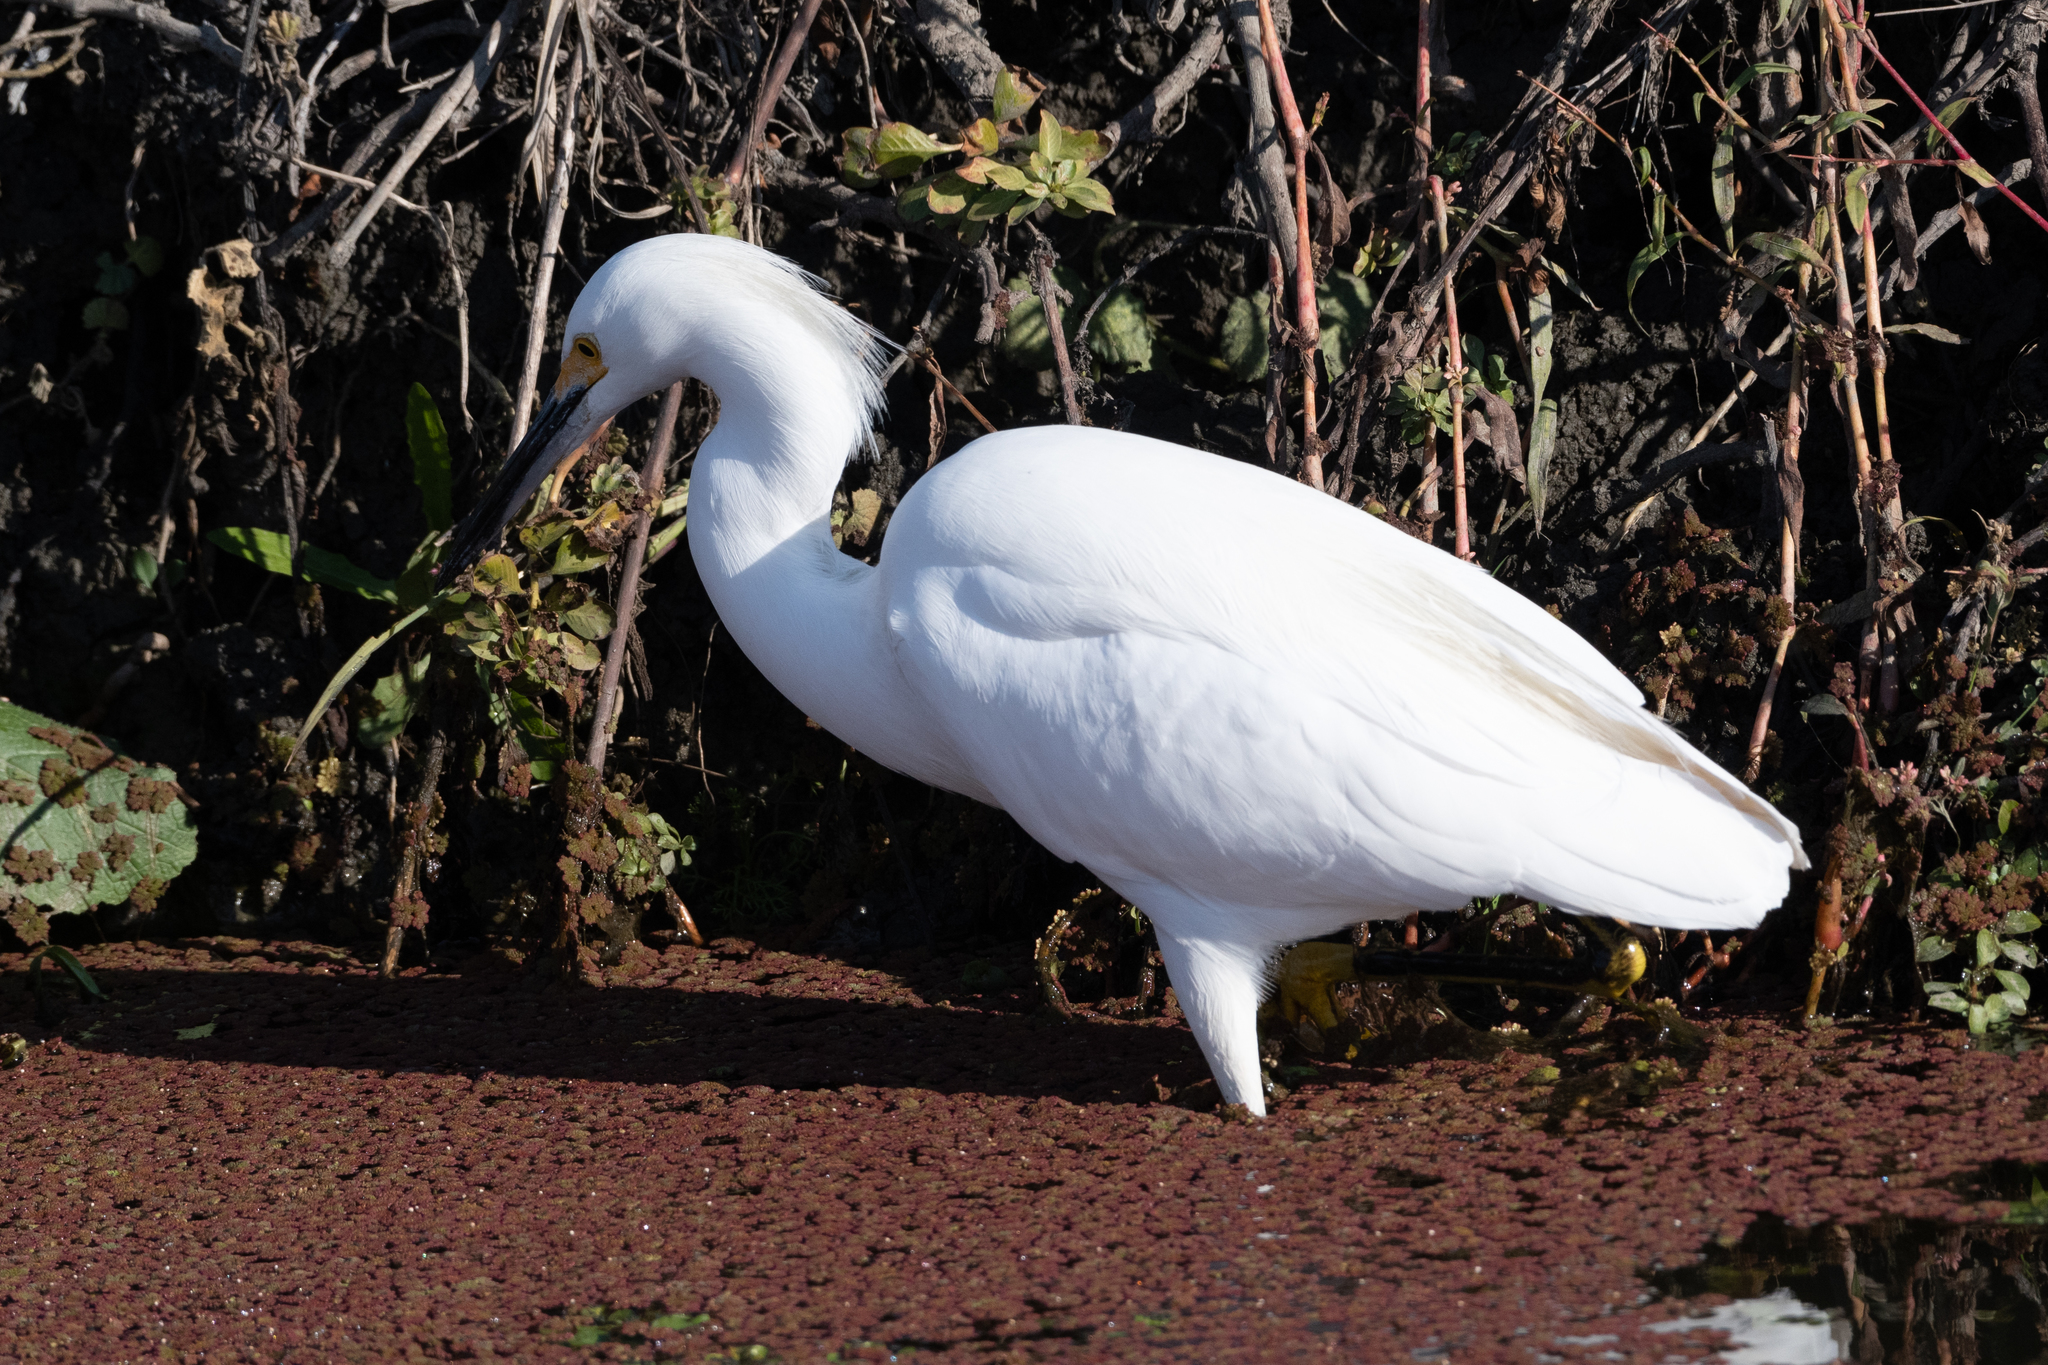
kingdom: Animalia
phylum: Chordata
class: Aves
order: Pelecaniformes
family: Ardeidae
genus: Egretta
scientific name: Egretta thula
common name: Snowy egret
